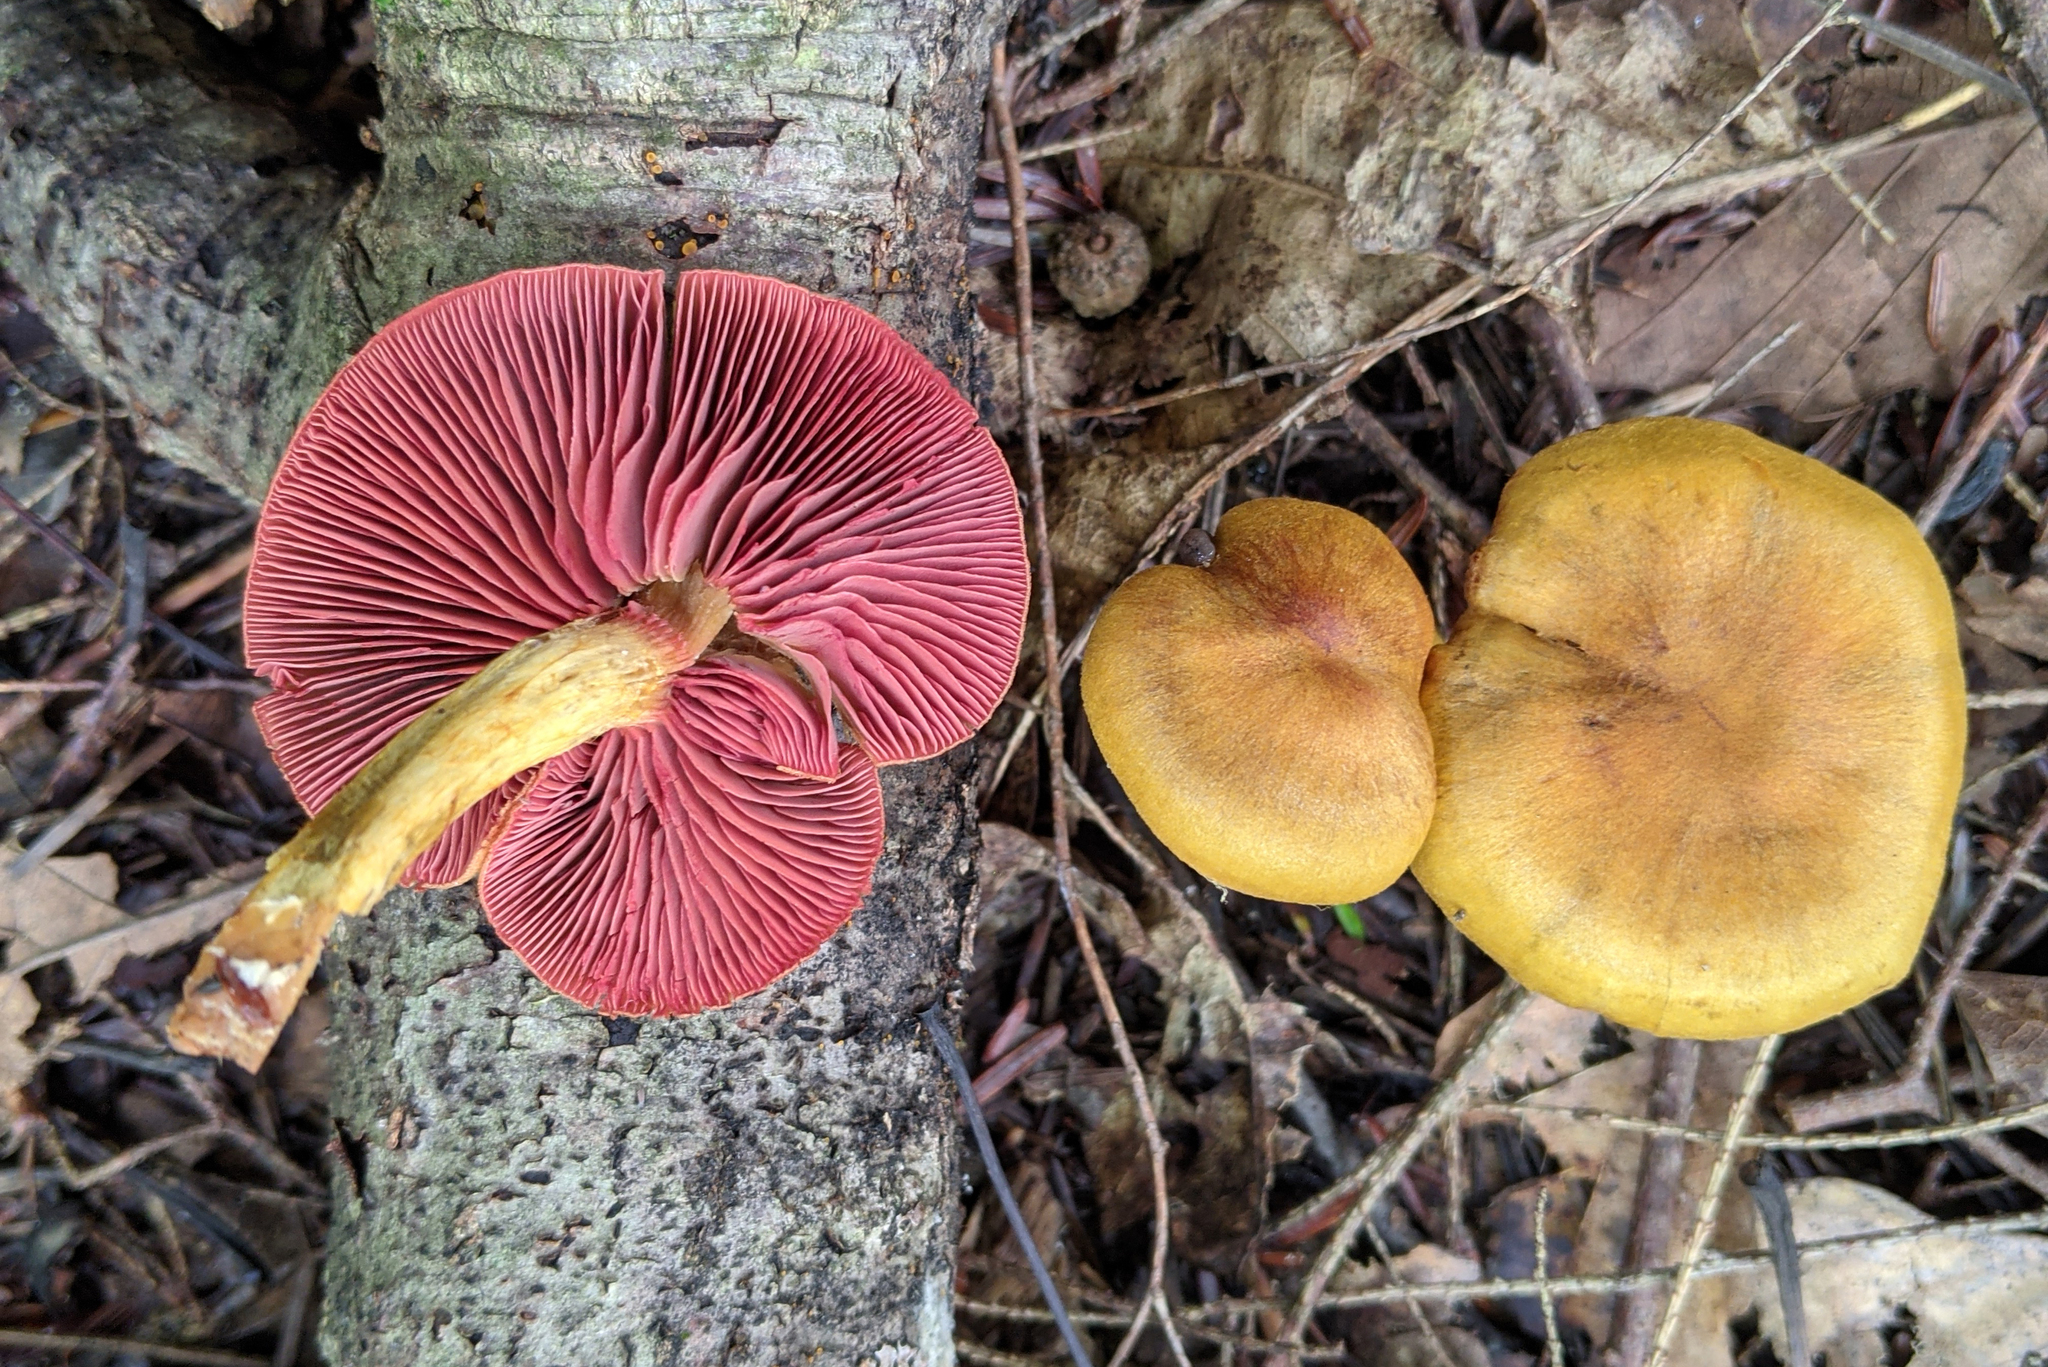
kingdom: Fungi
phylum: Basidiomycota
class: Agaricomycetes
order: Agaricales
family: Cortinariaceae
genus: Cortinarius
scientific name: Cortinarius semisanguineus
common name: Surprise webcap
